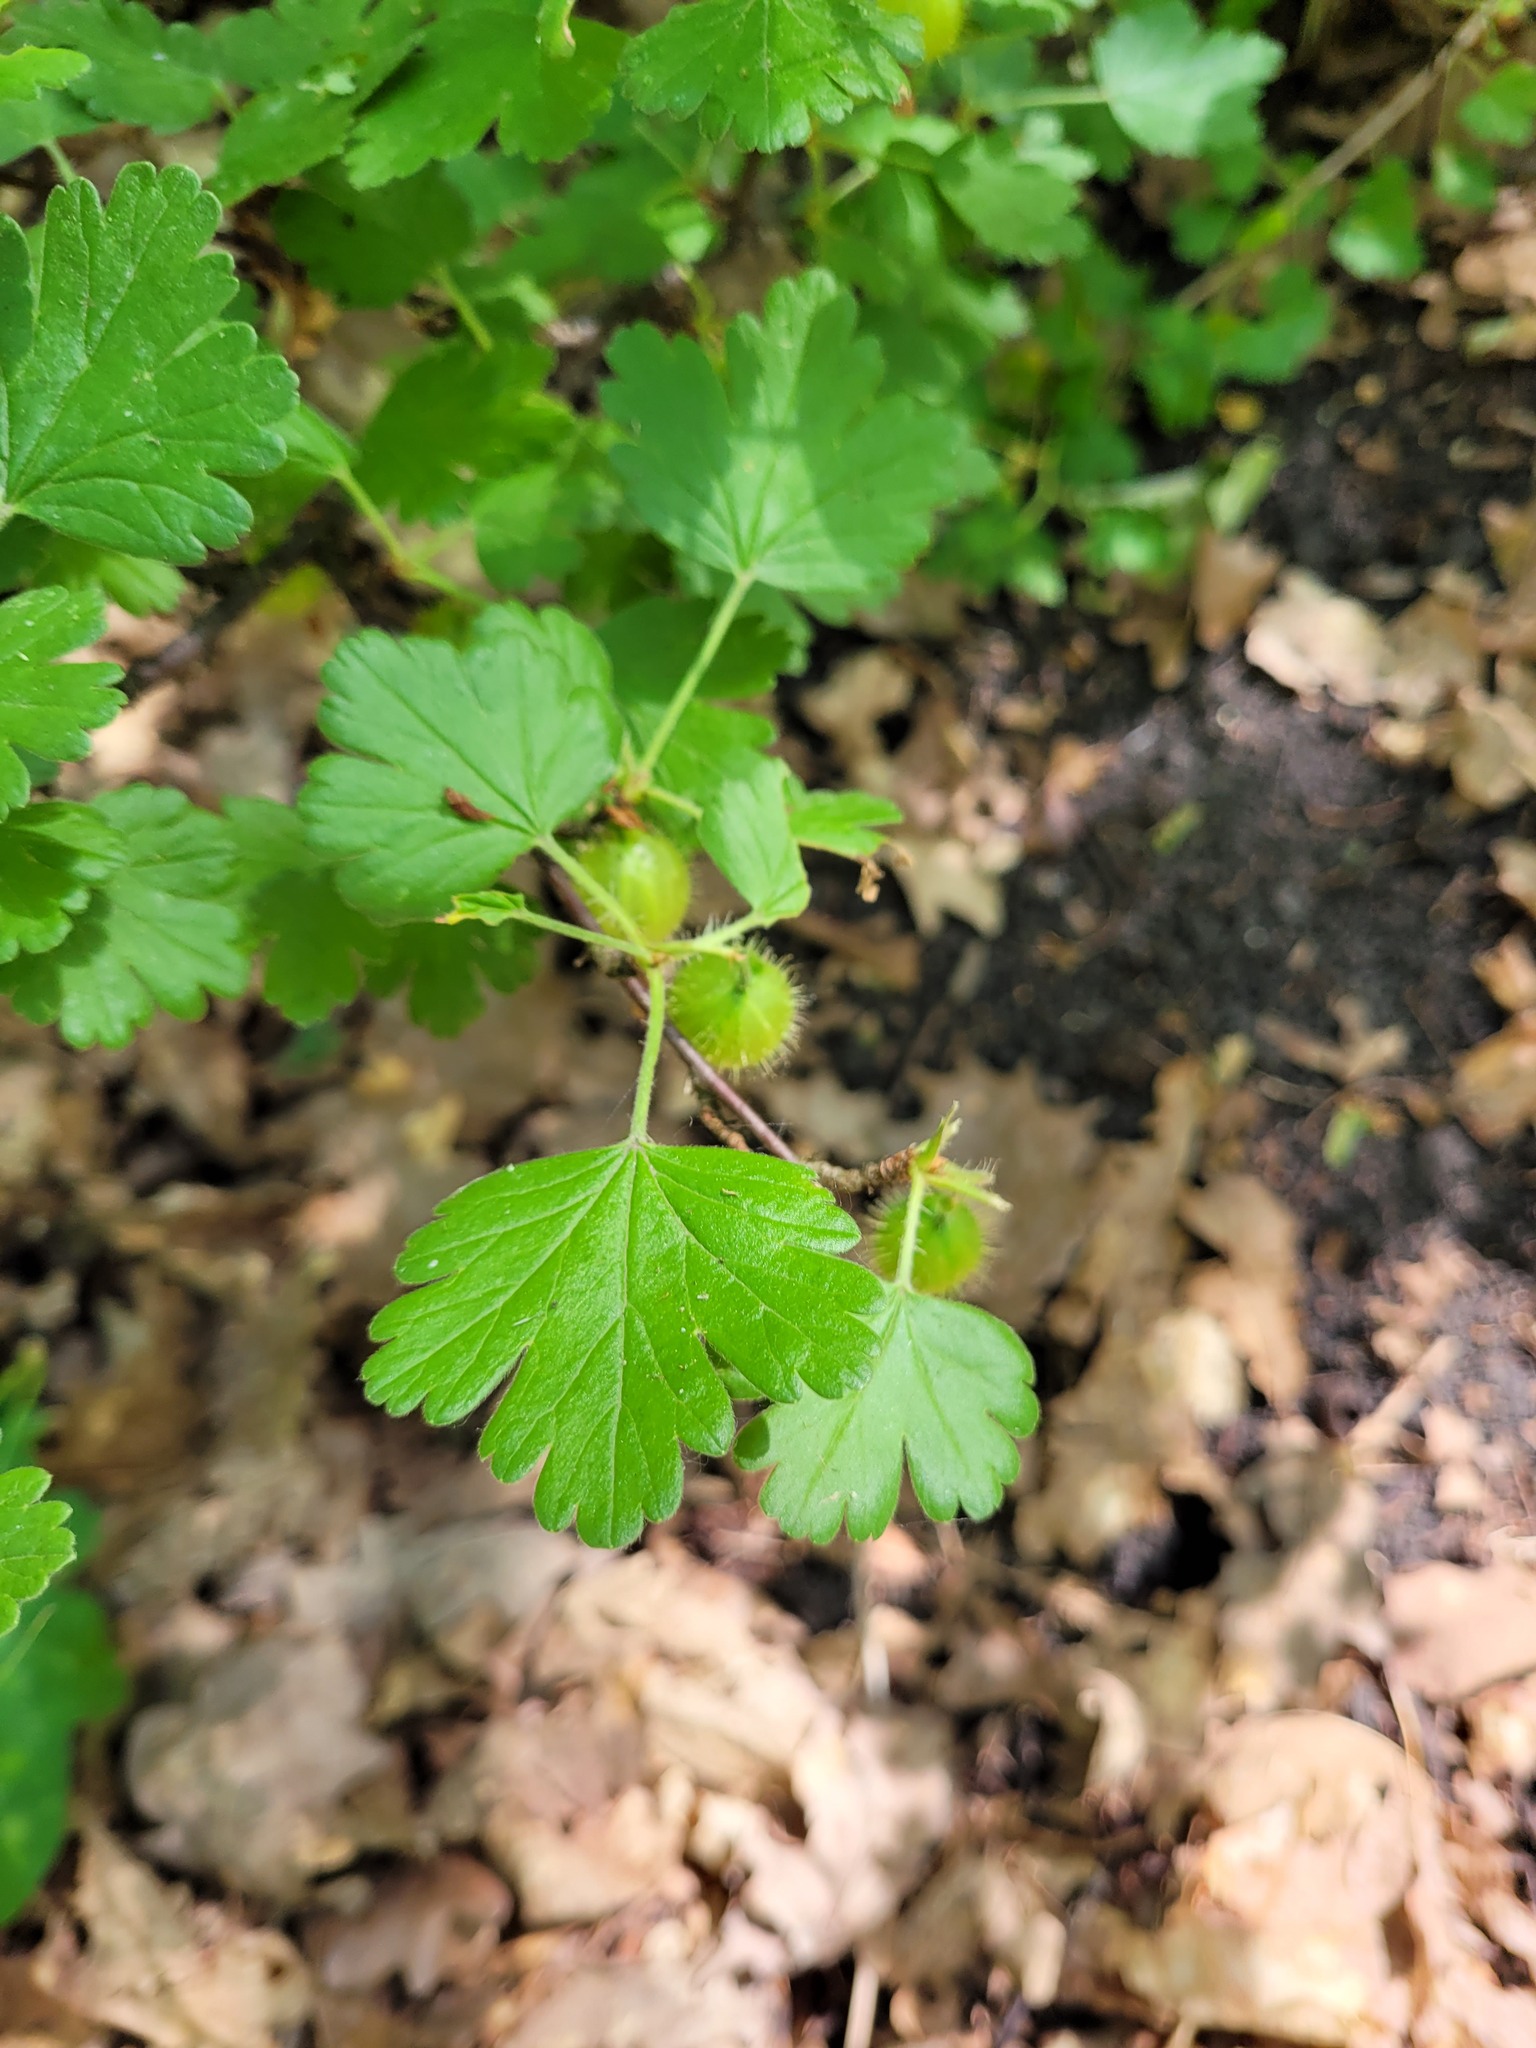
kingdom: Plantae
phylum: Tracheophyta
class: Magnoliopsida
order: Saxifragales
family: Grossulariaceae
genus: Ribes
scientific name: Ribes uva-crispa
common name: Gooseberry
